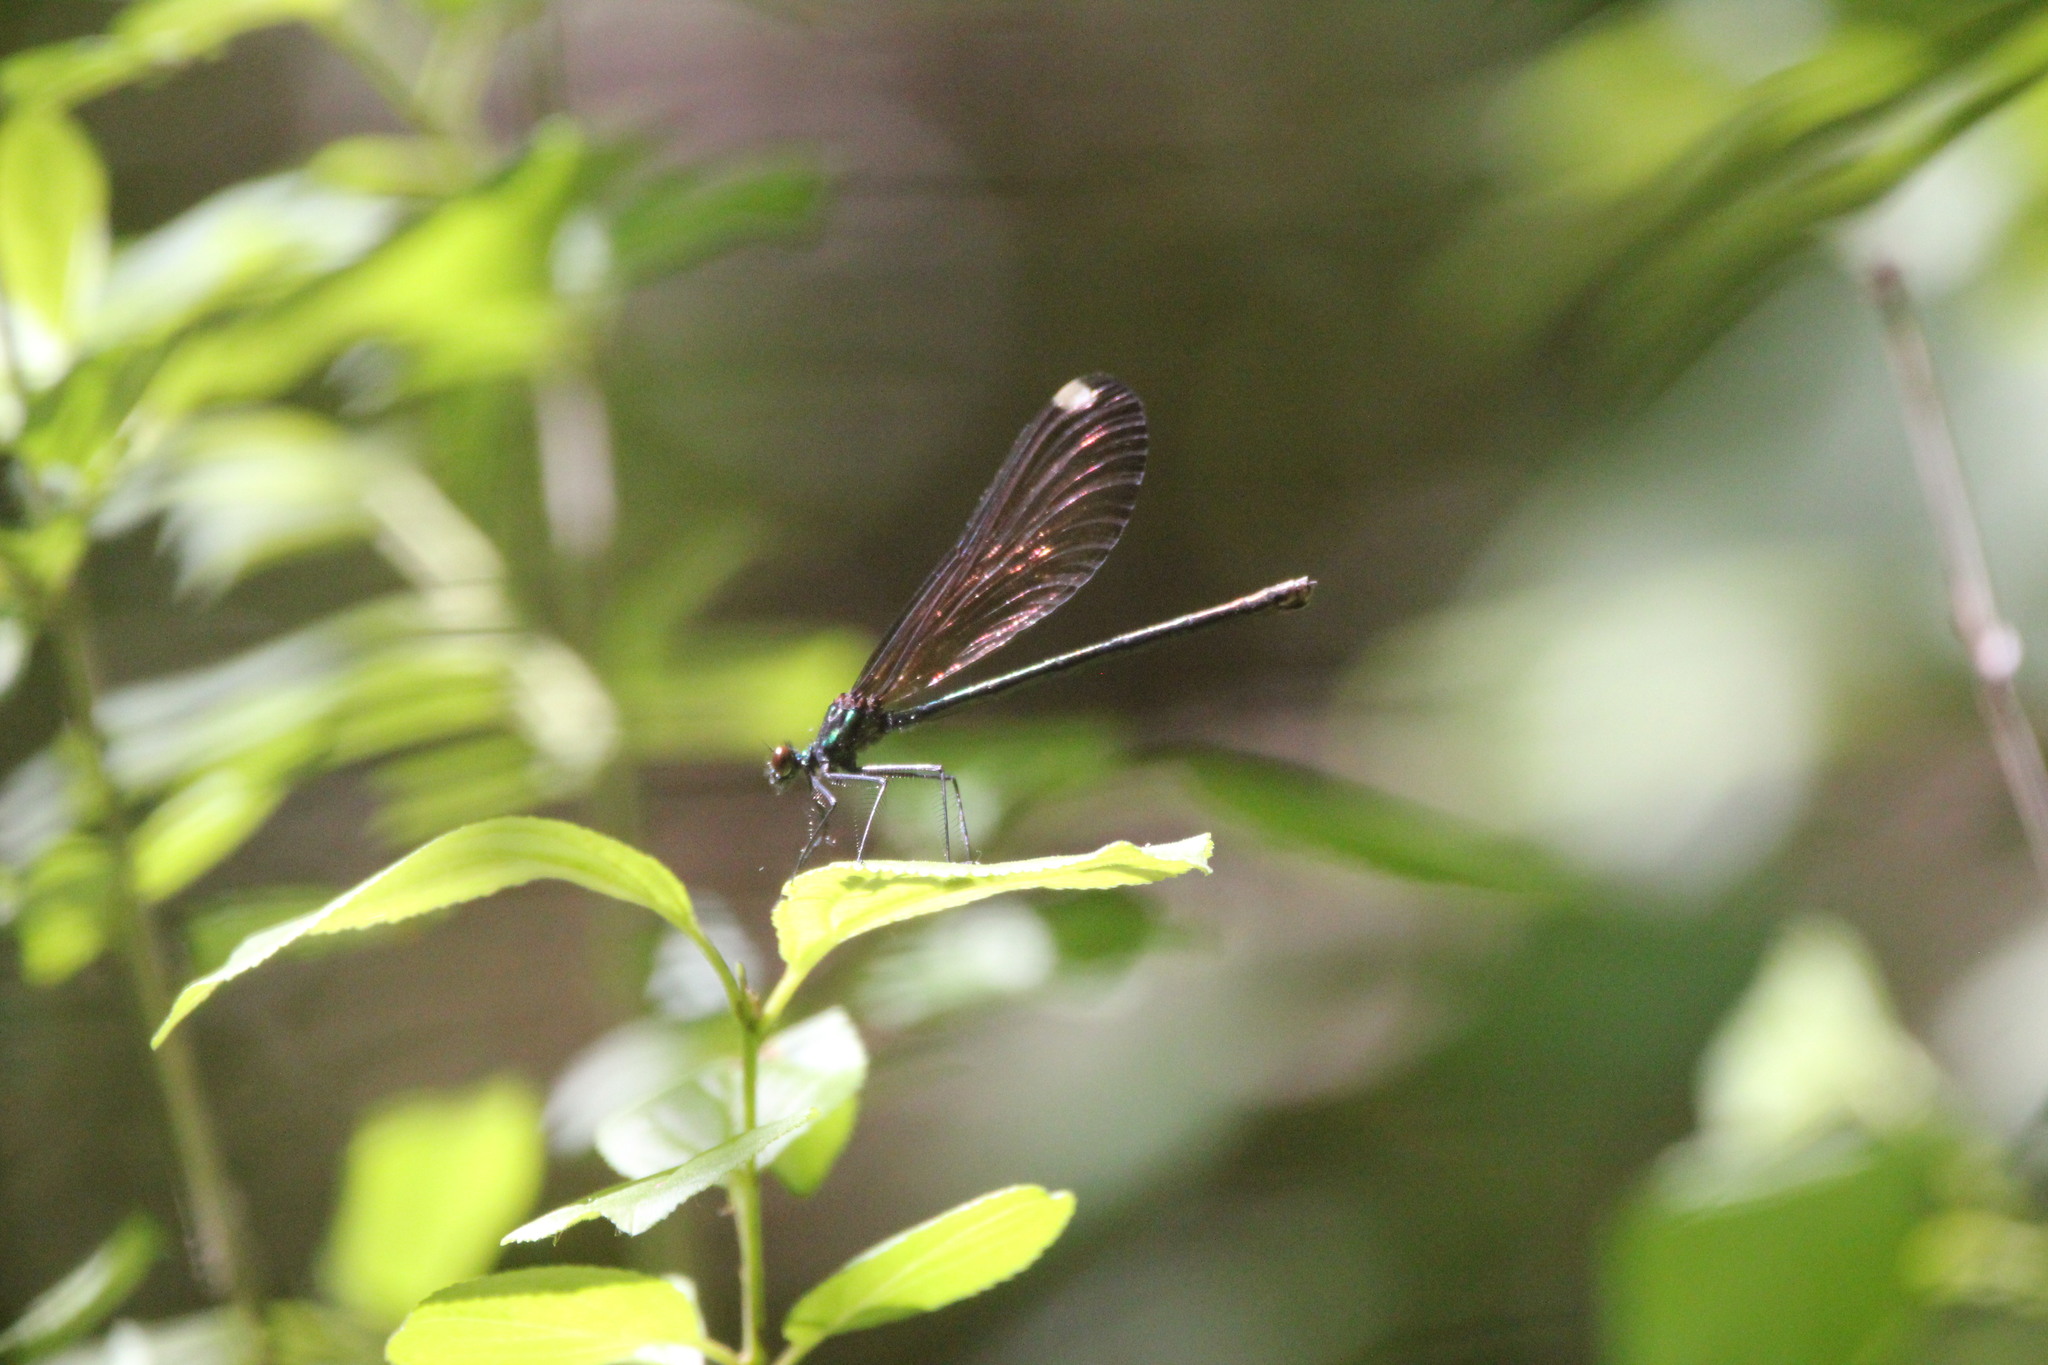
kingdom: Animalia
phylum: Arthropoda
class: Insecta
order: Odonata
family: Calopterygidae
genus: Calopteryx
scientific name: Calopteryx maculata
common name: Ebony jewelwing
